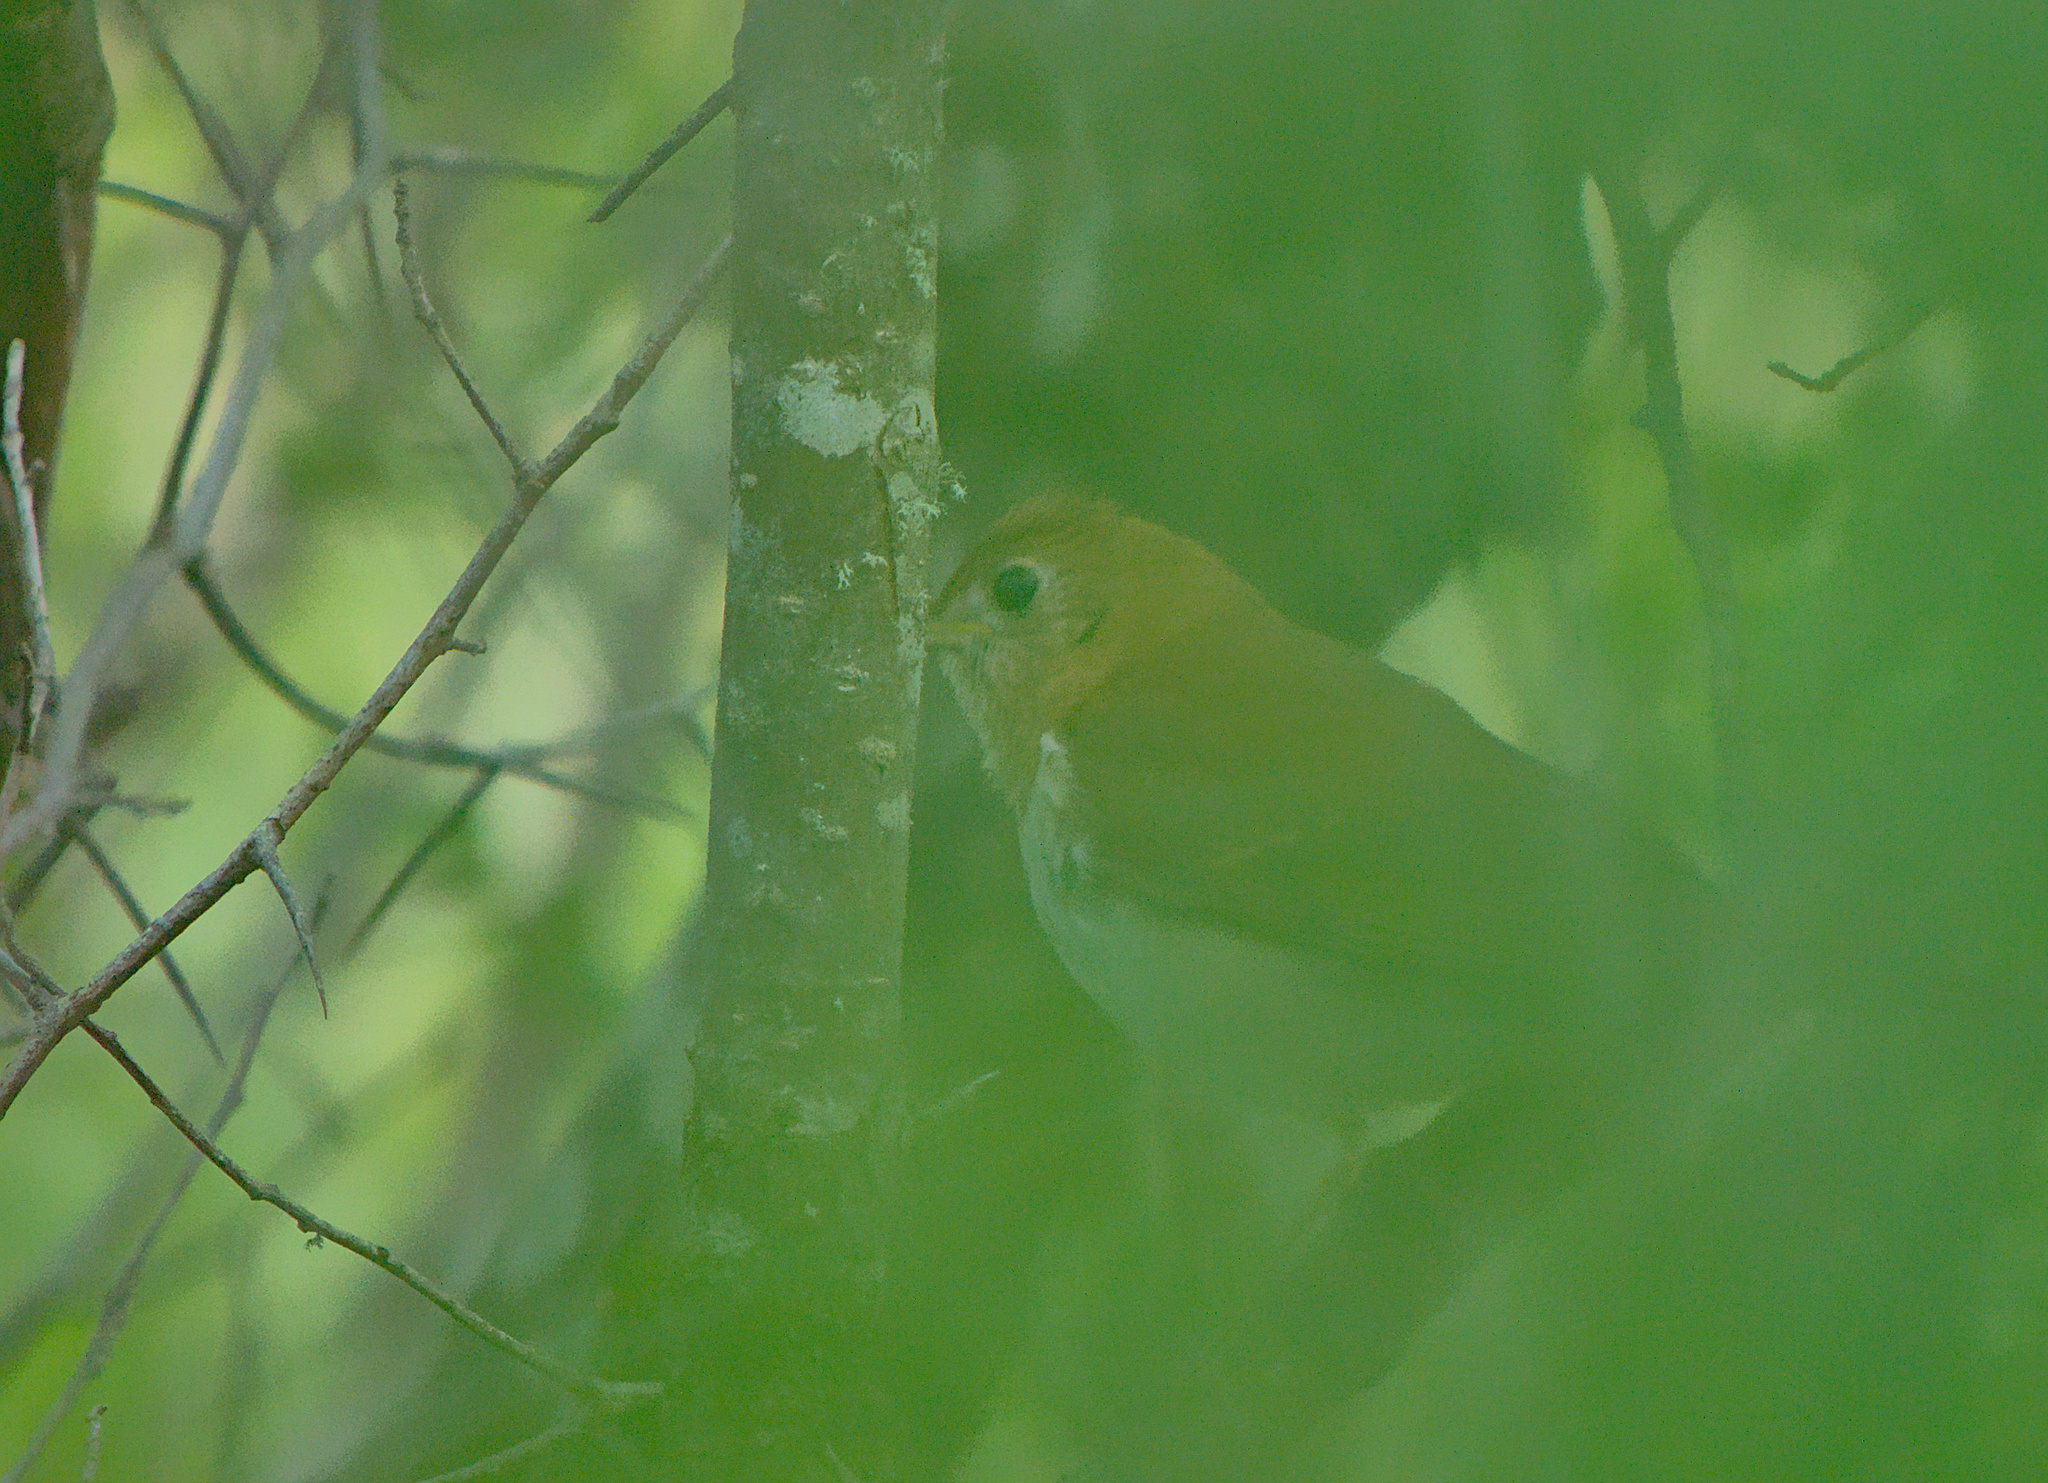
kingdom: Animalia
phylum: Chordata
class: Aves
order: Passeriformes
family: Turdidae
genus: Catharus
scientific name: Catharus fuscescens
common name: Veery
